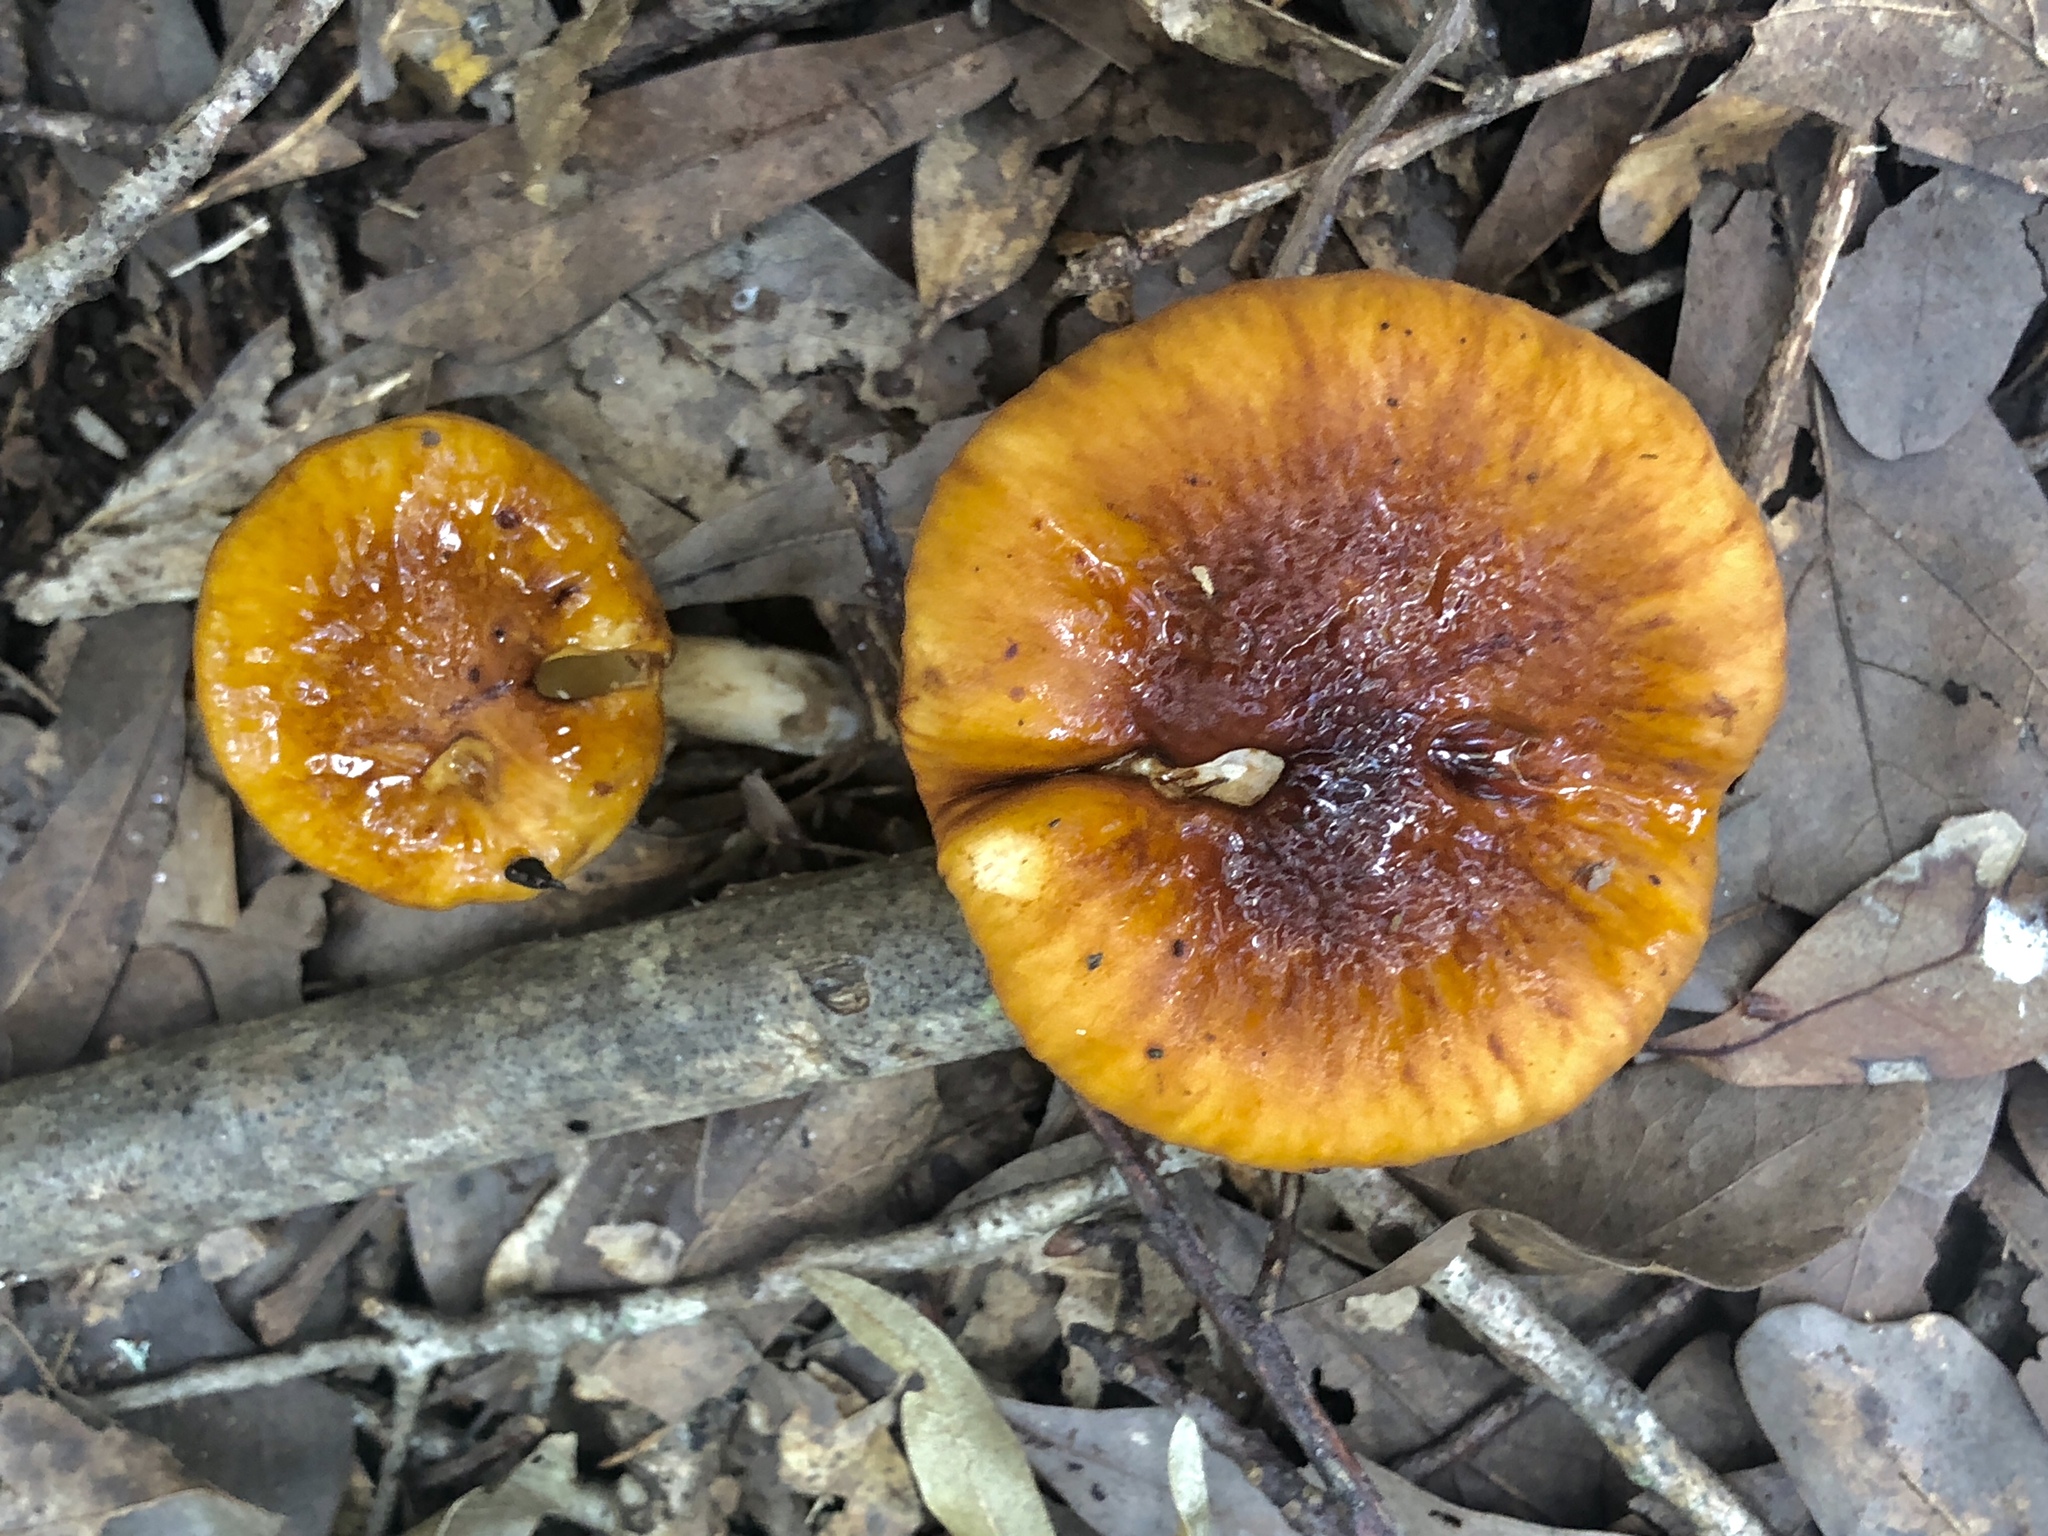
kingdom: Fungi
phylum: Basidiomycota
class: Agaricomycetes
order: Agaricales
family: Amanitaceae
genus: Limacella
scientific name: Limacella glischra
